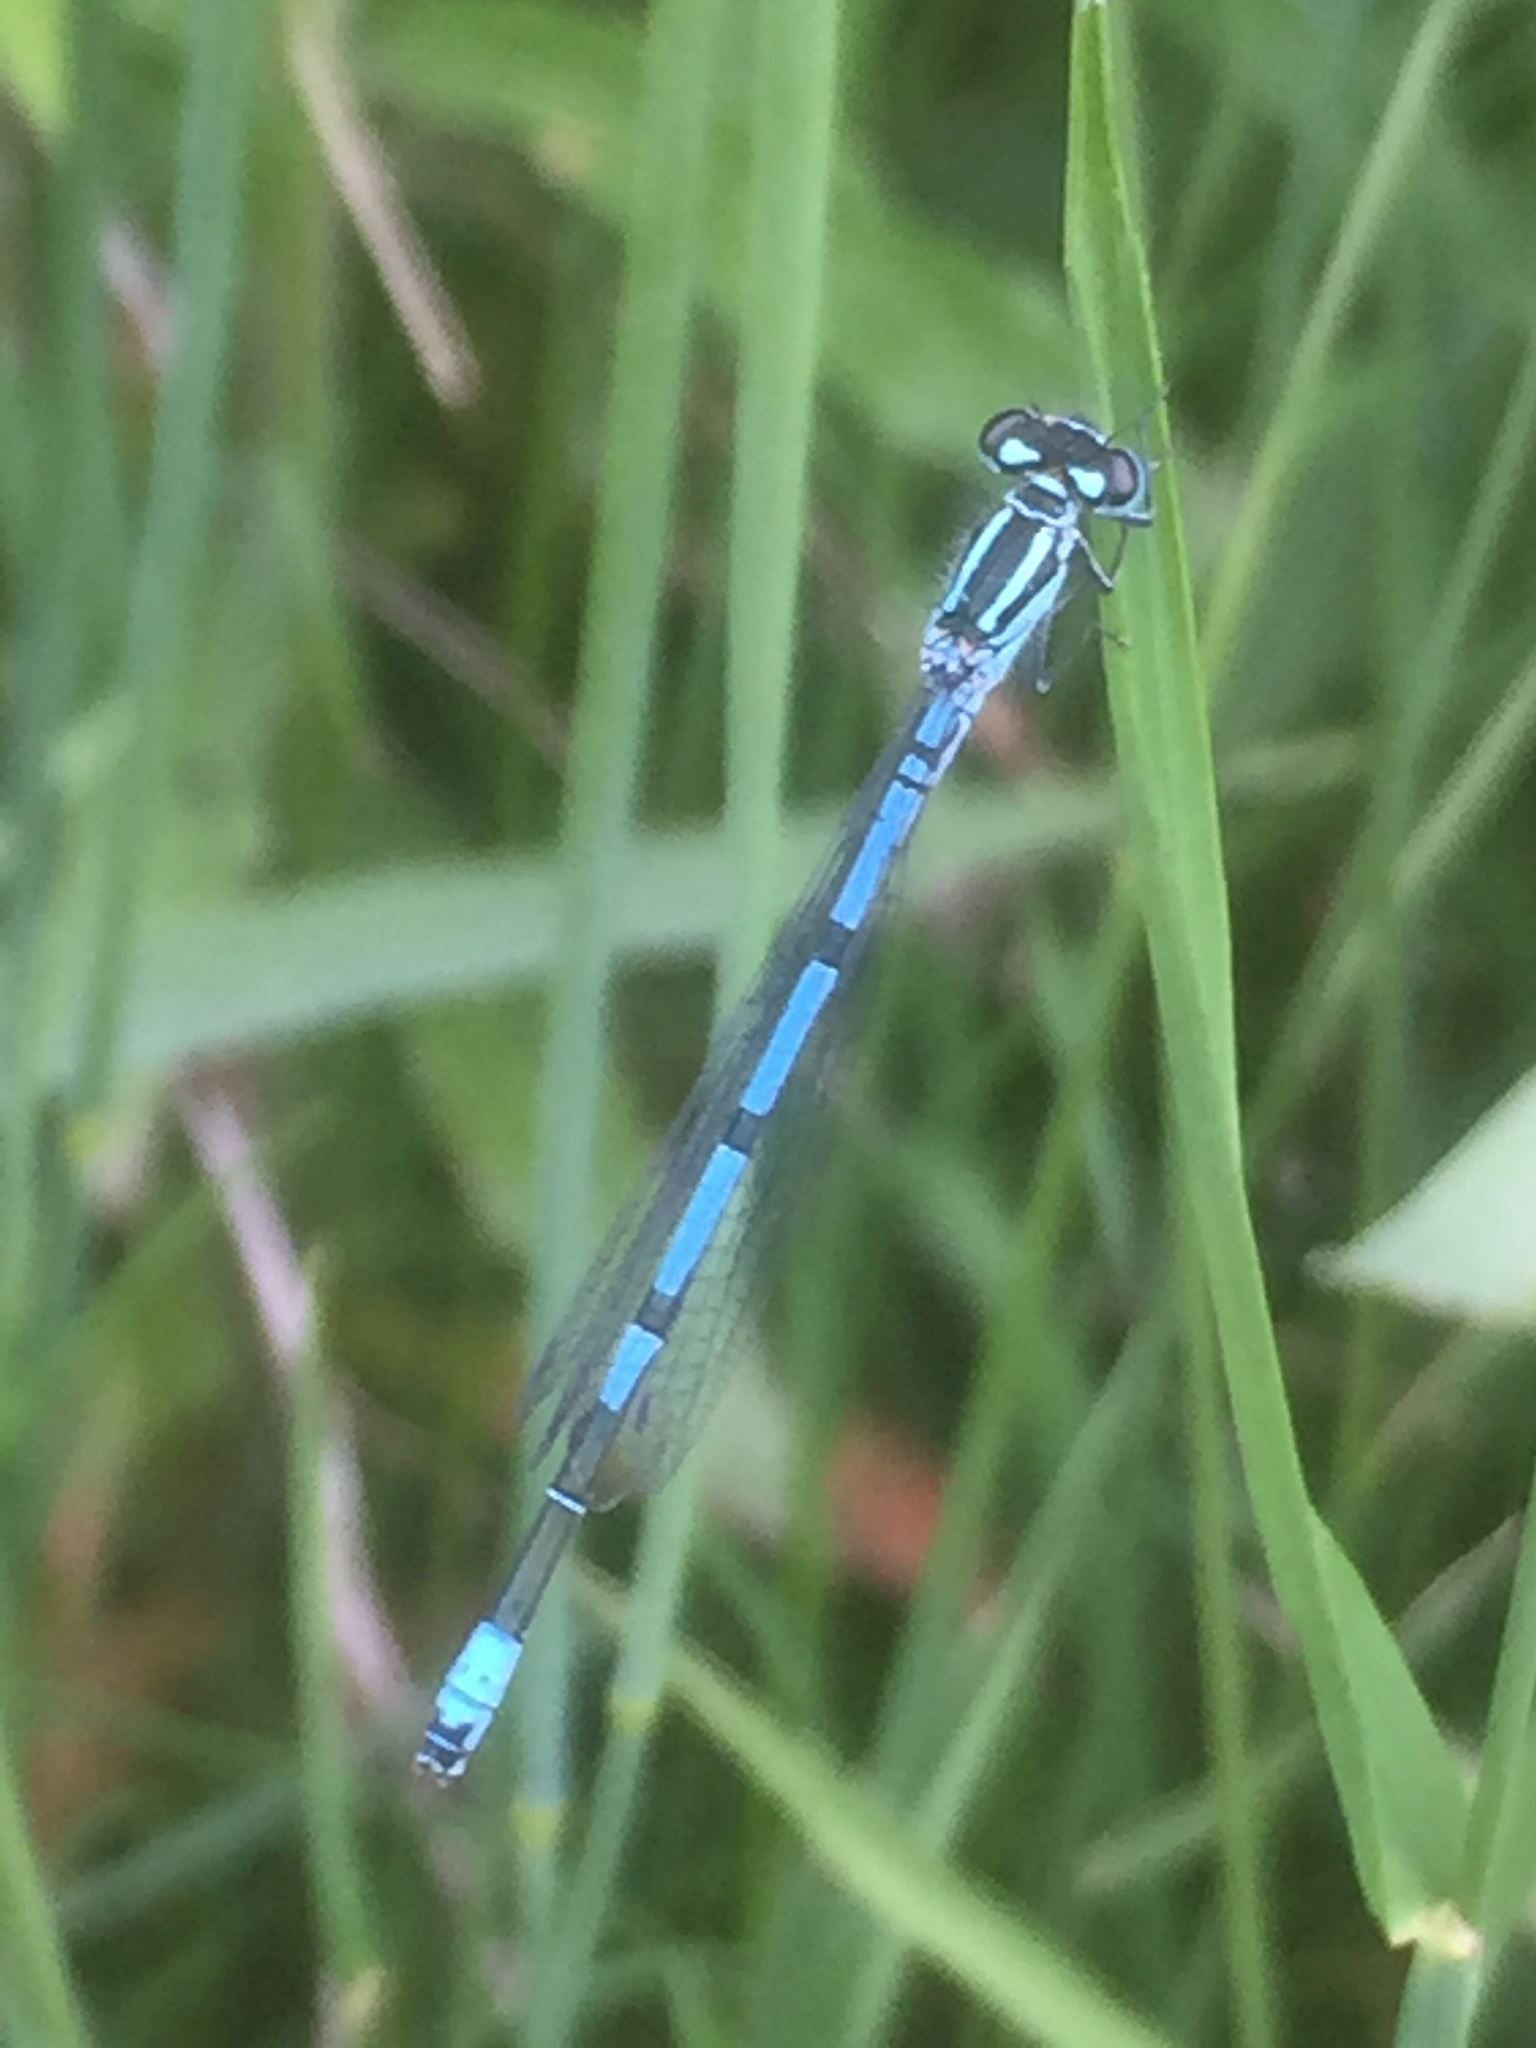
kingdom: Animalia
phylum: Arthropoda
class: Insecta
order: Odonata
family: Coenagrionidae
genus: Coenagrion
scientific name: Coenagrion puella
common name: Azure damselfly
